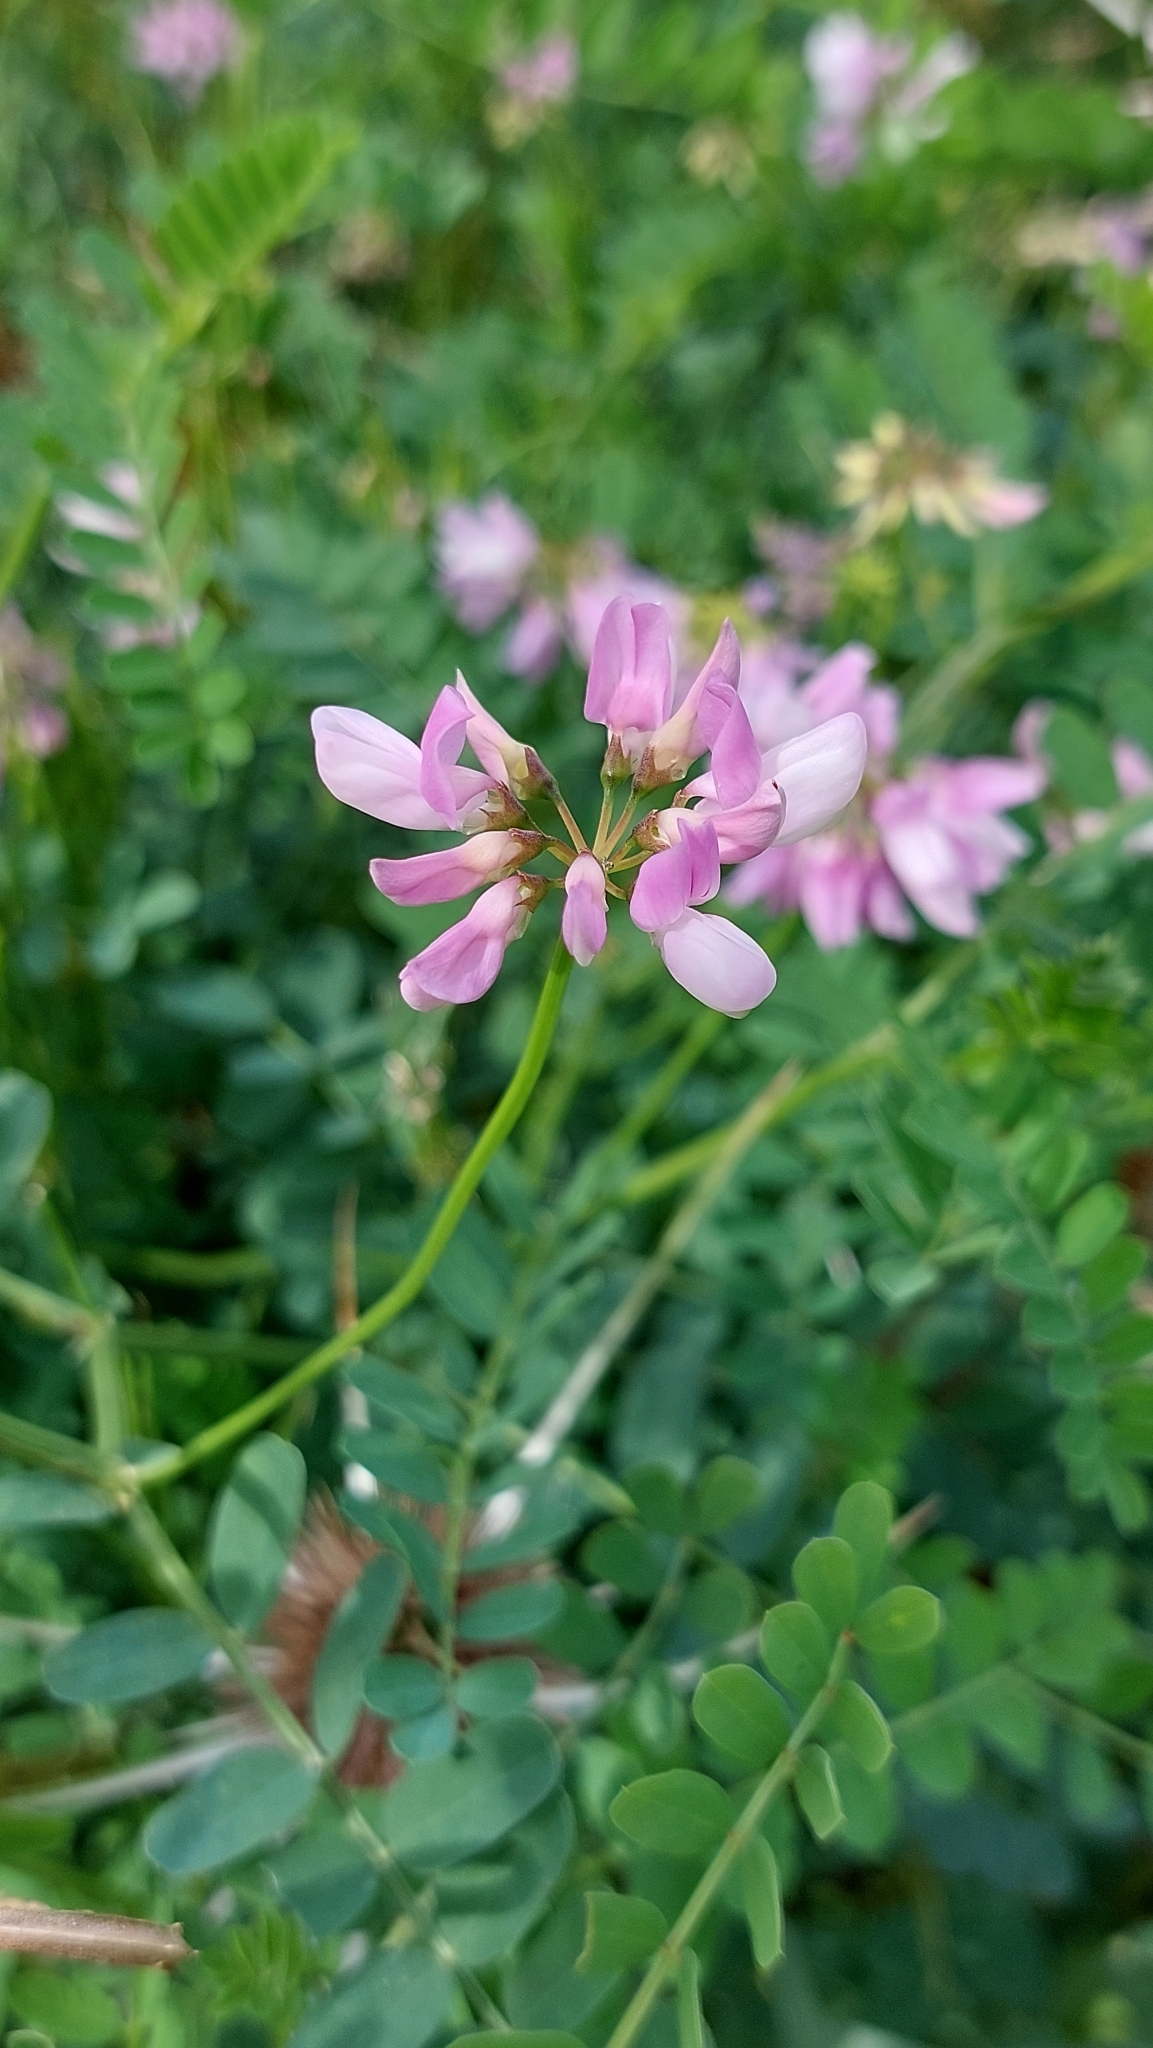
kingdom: Plantae
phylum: Tracheophyta
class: Magnoliopsida
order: Fabales
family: Fabaceae
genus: Coronilla
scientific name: Coronilla varia
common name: Crownvetch
